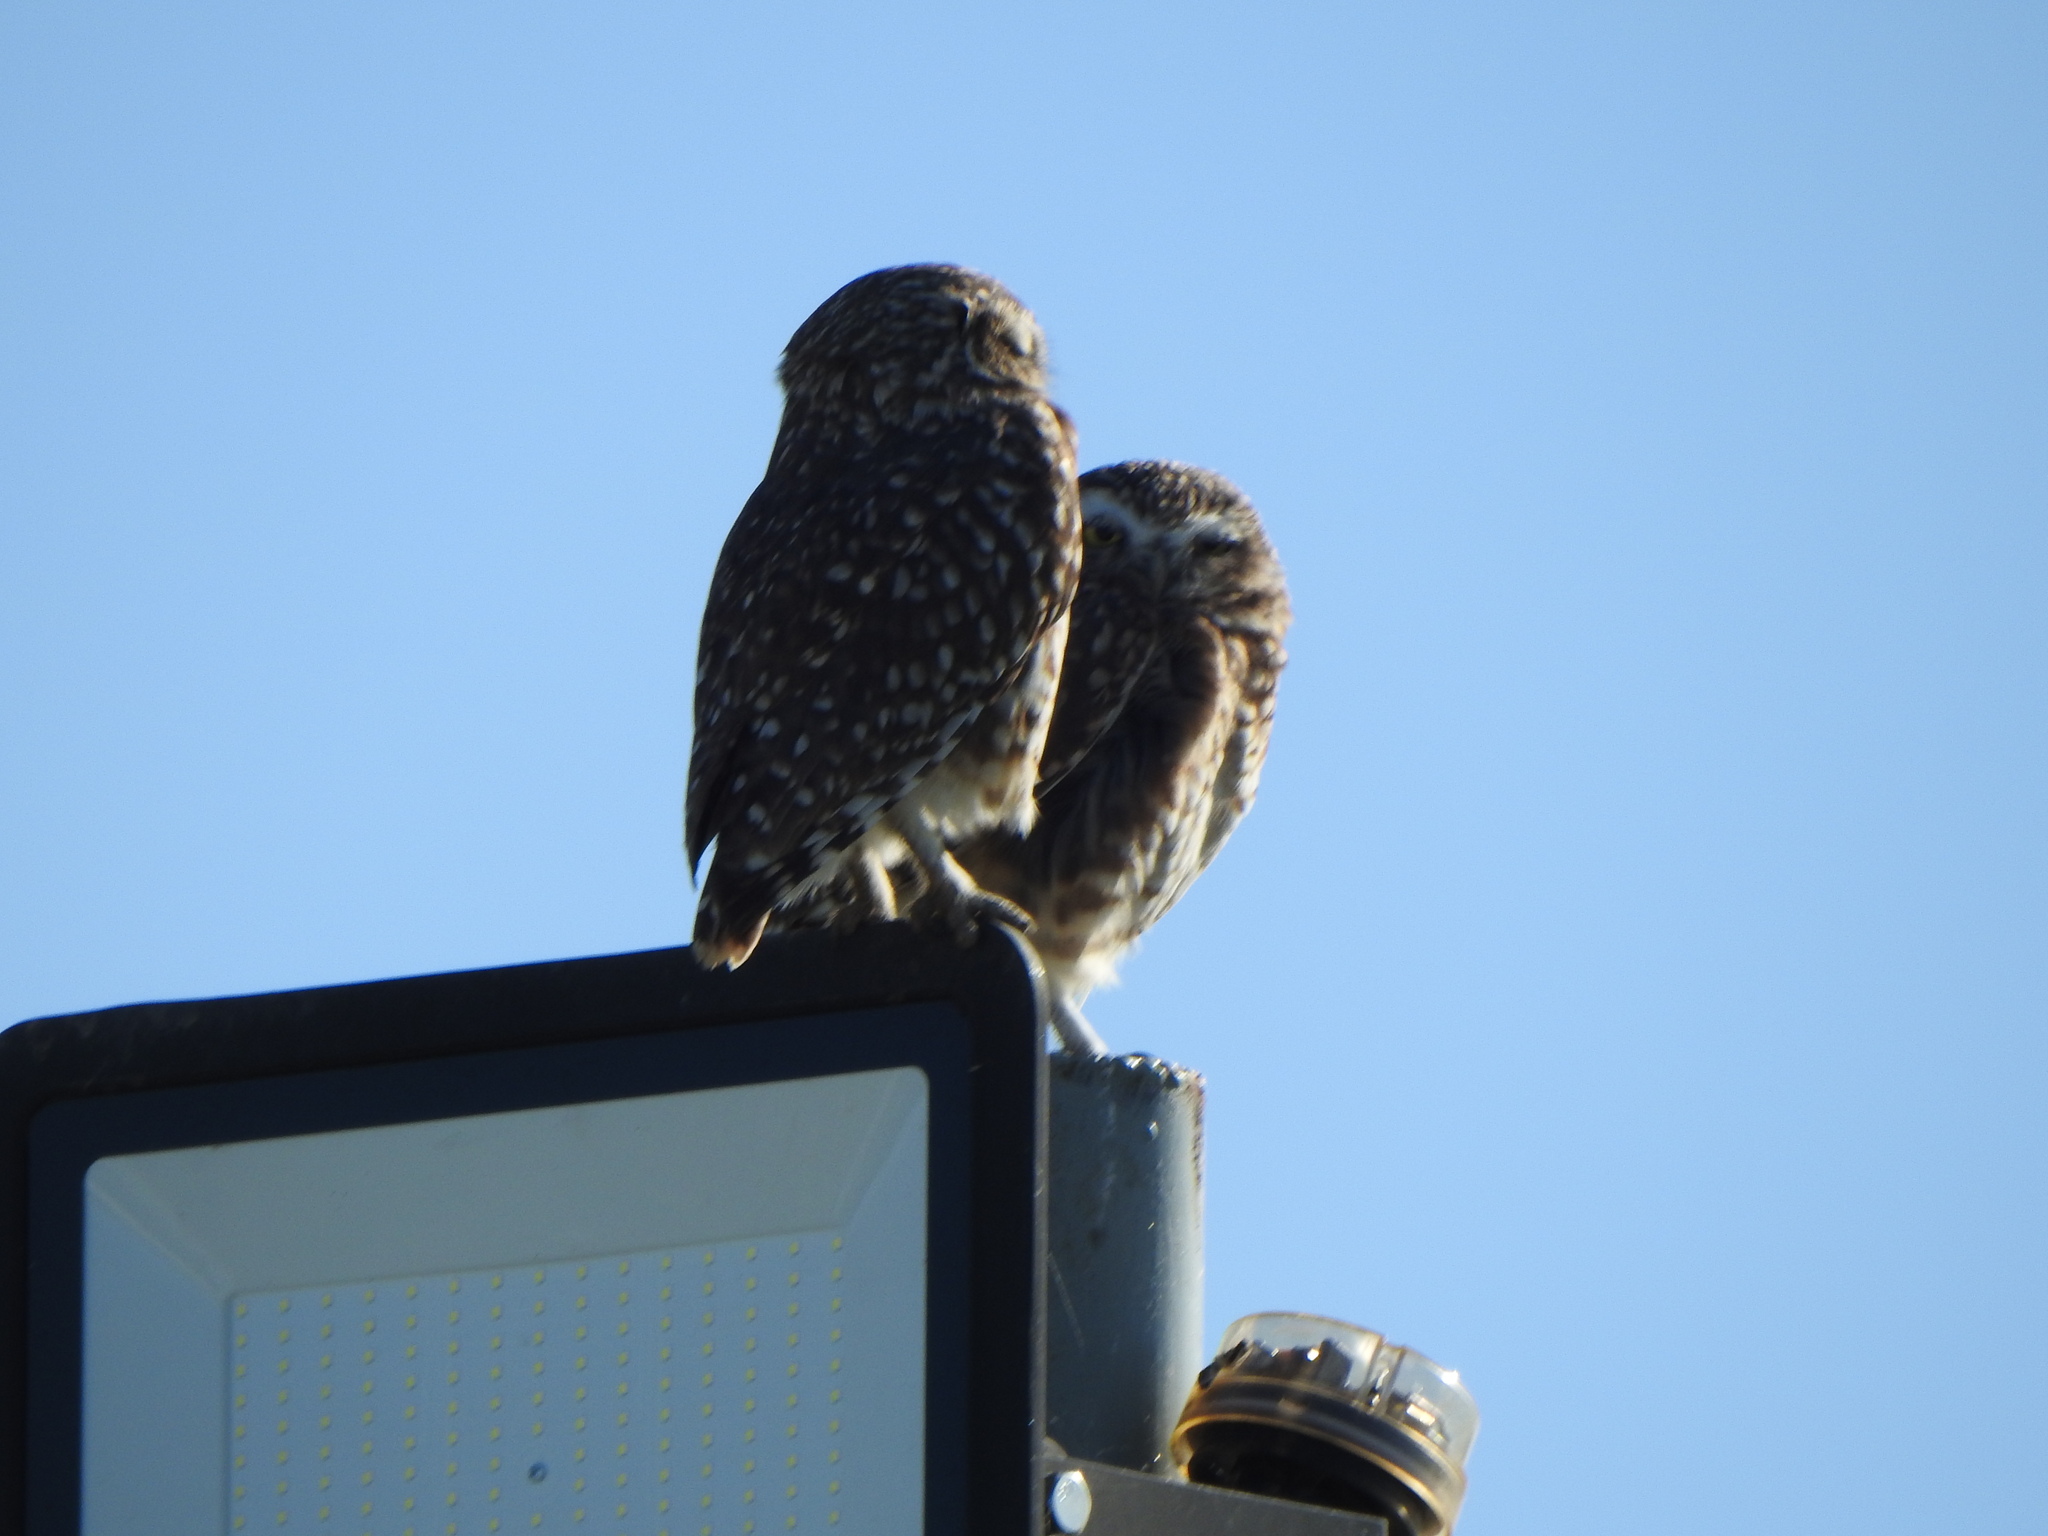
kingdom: Animalia
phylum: Chordata
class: Aves
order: Strigiformes
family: Strigidae
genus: Athene
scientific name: Athene cunicularia
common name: Burrowing owl
